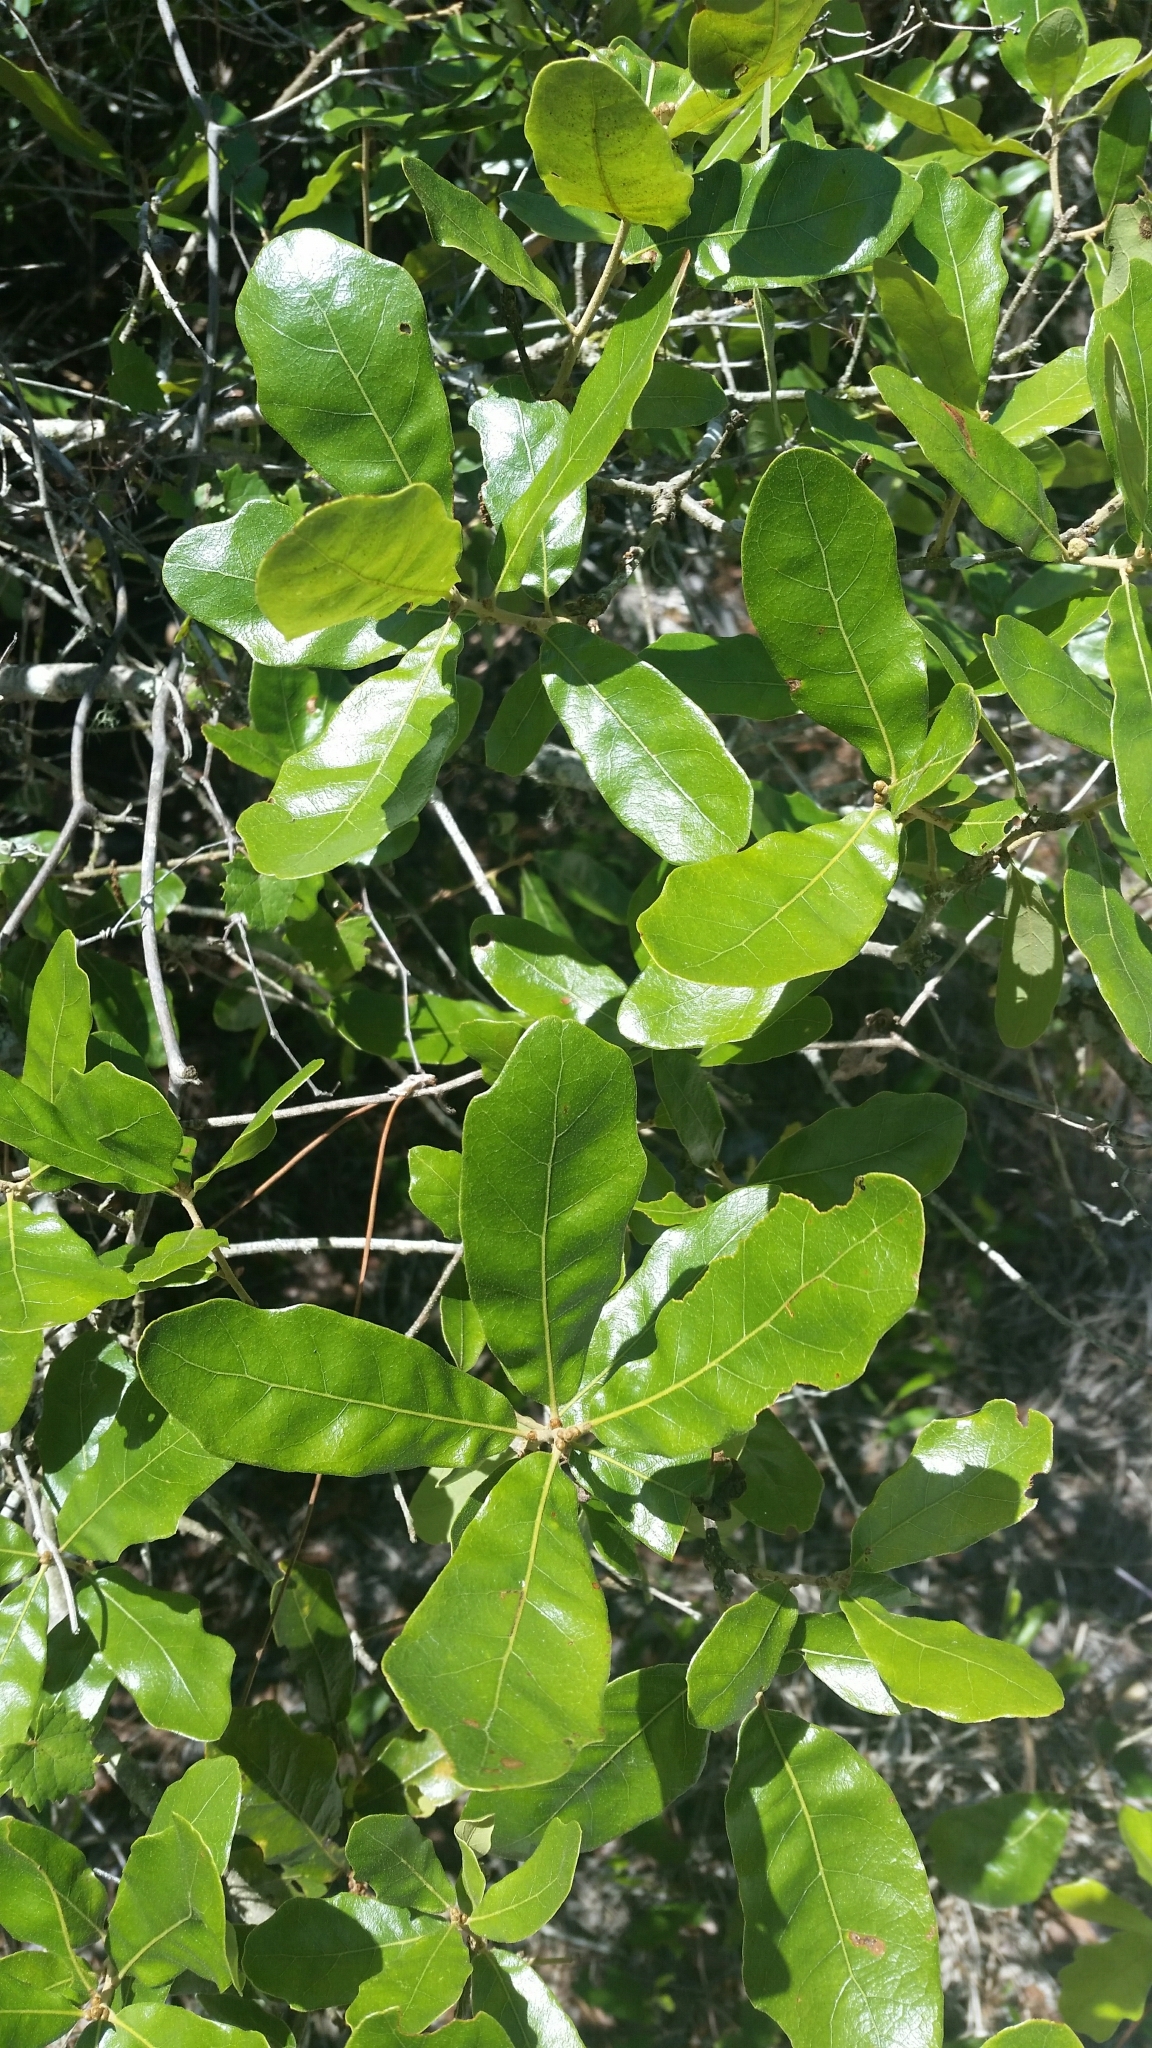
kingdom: Plantae
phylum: Tracheophyta
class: Magnoliopsida
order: Fagales
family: Fagaceae
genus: Quercus
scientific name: Quercus chapmanii
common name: Chapman oak
